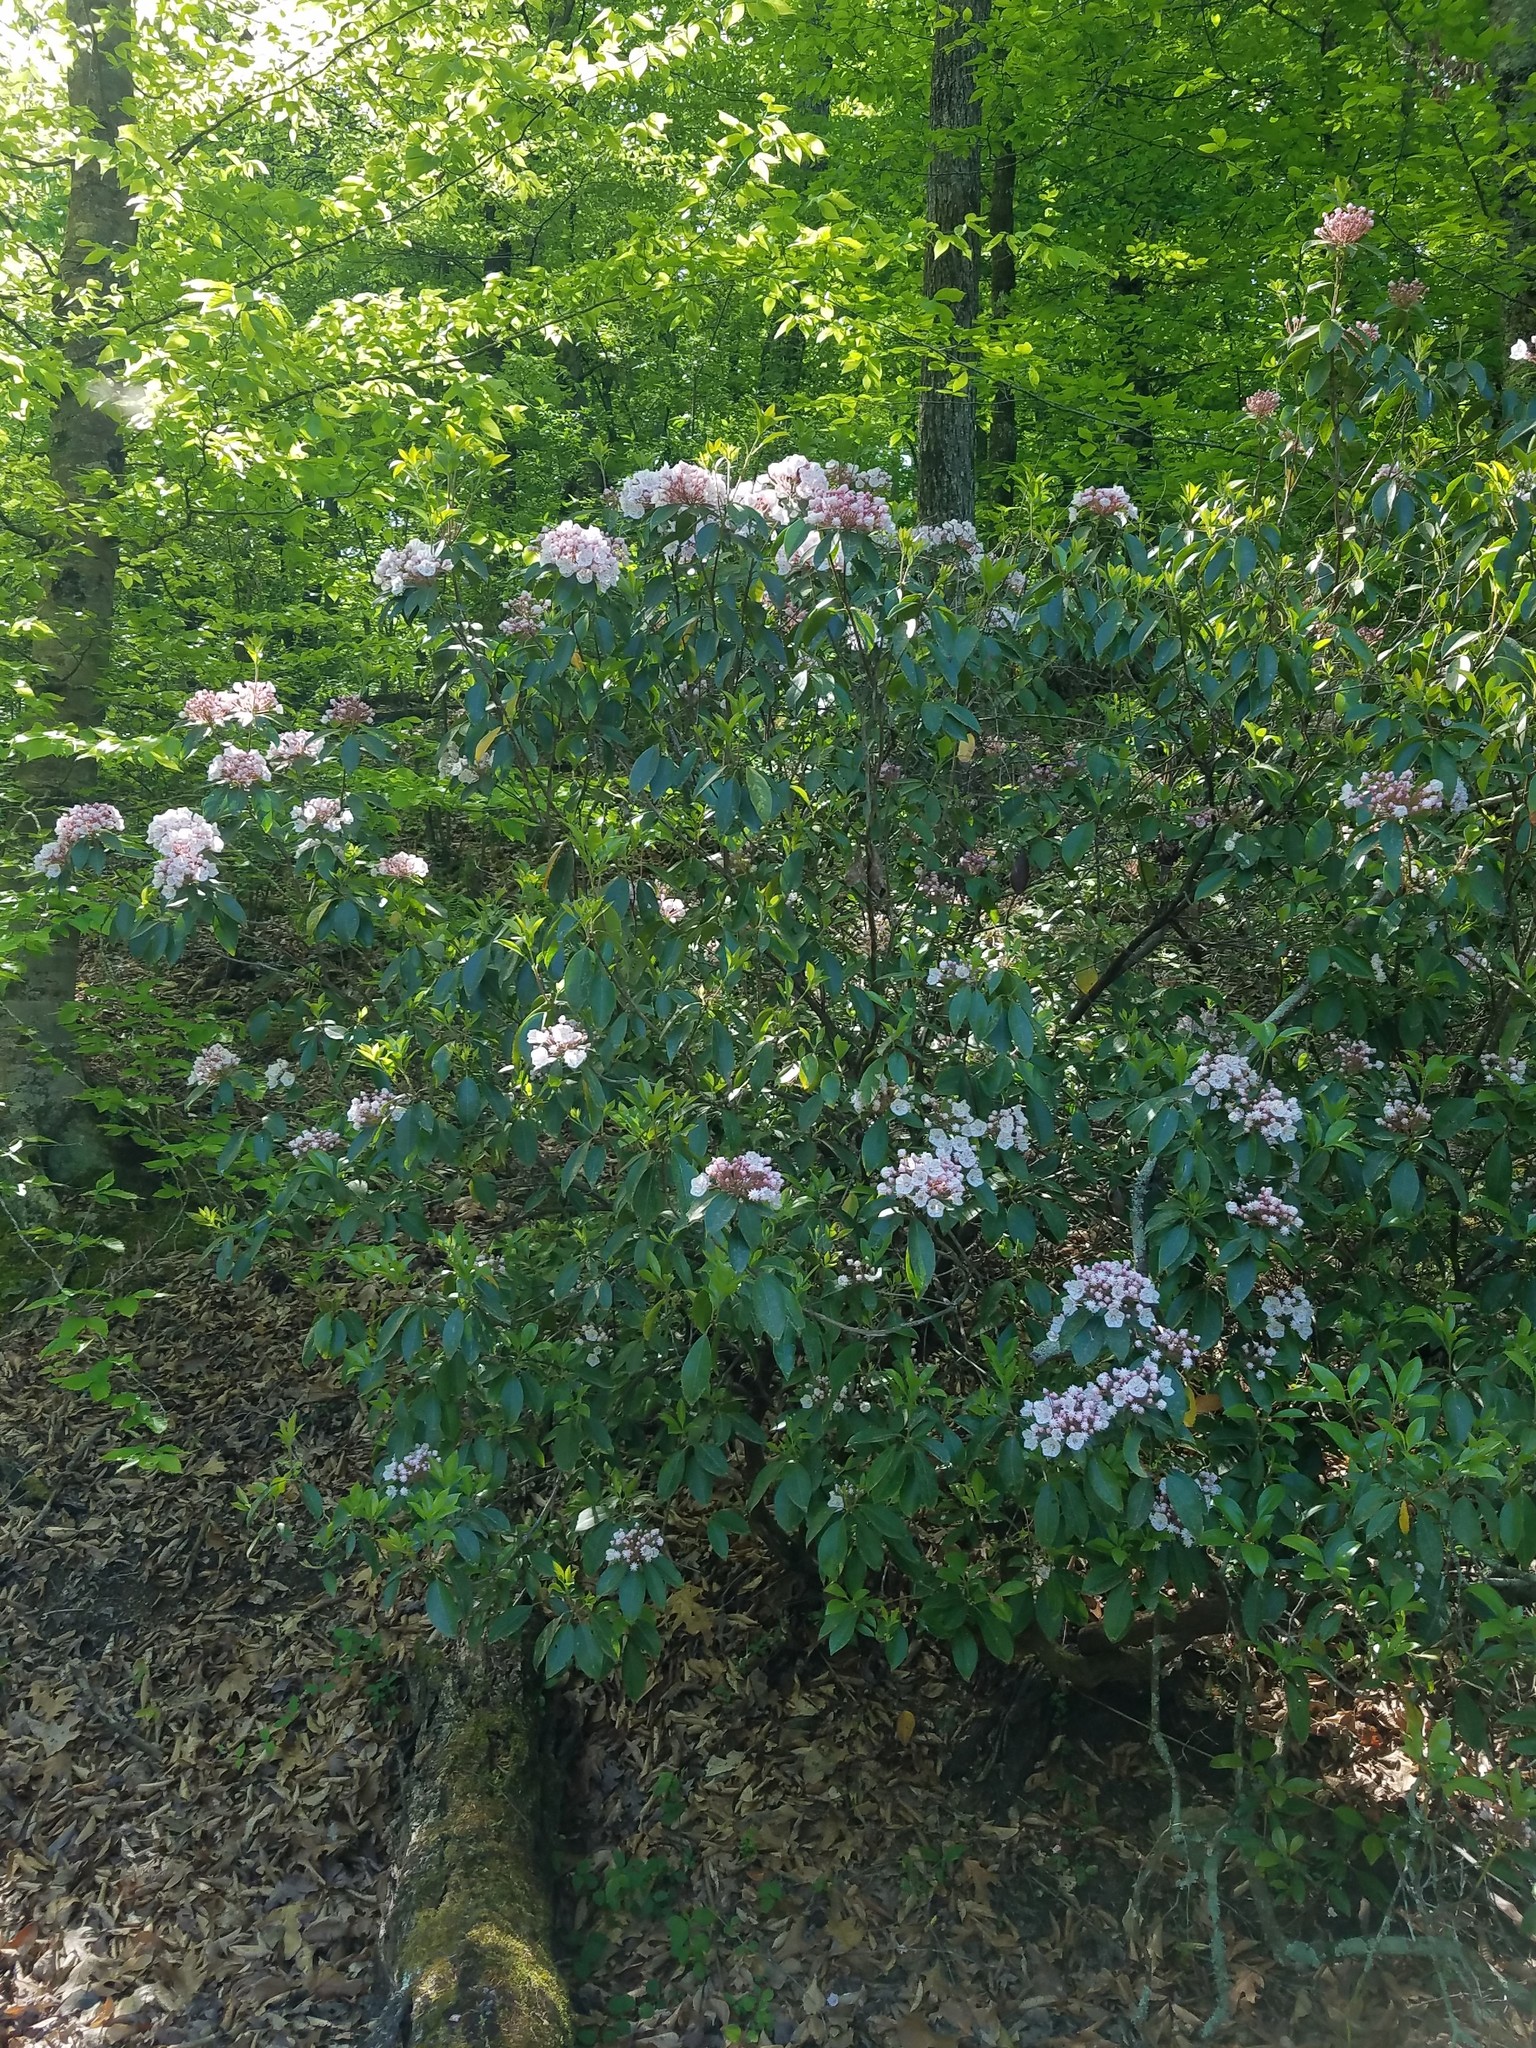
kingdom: Plantae
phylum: Tracheophyta
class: Magnoliopsida
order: Ericales
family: Ericaceae
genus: Kalmia
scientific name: Kalmia latifolia
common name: Mountain-laurel
